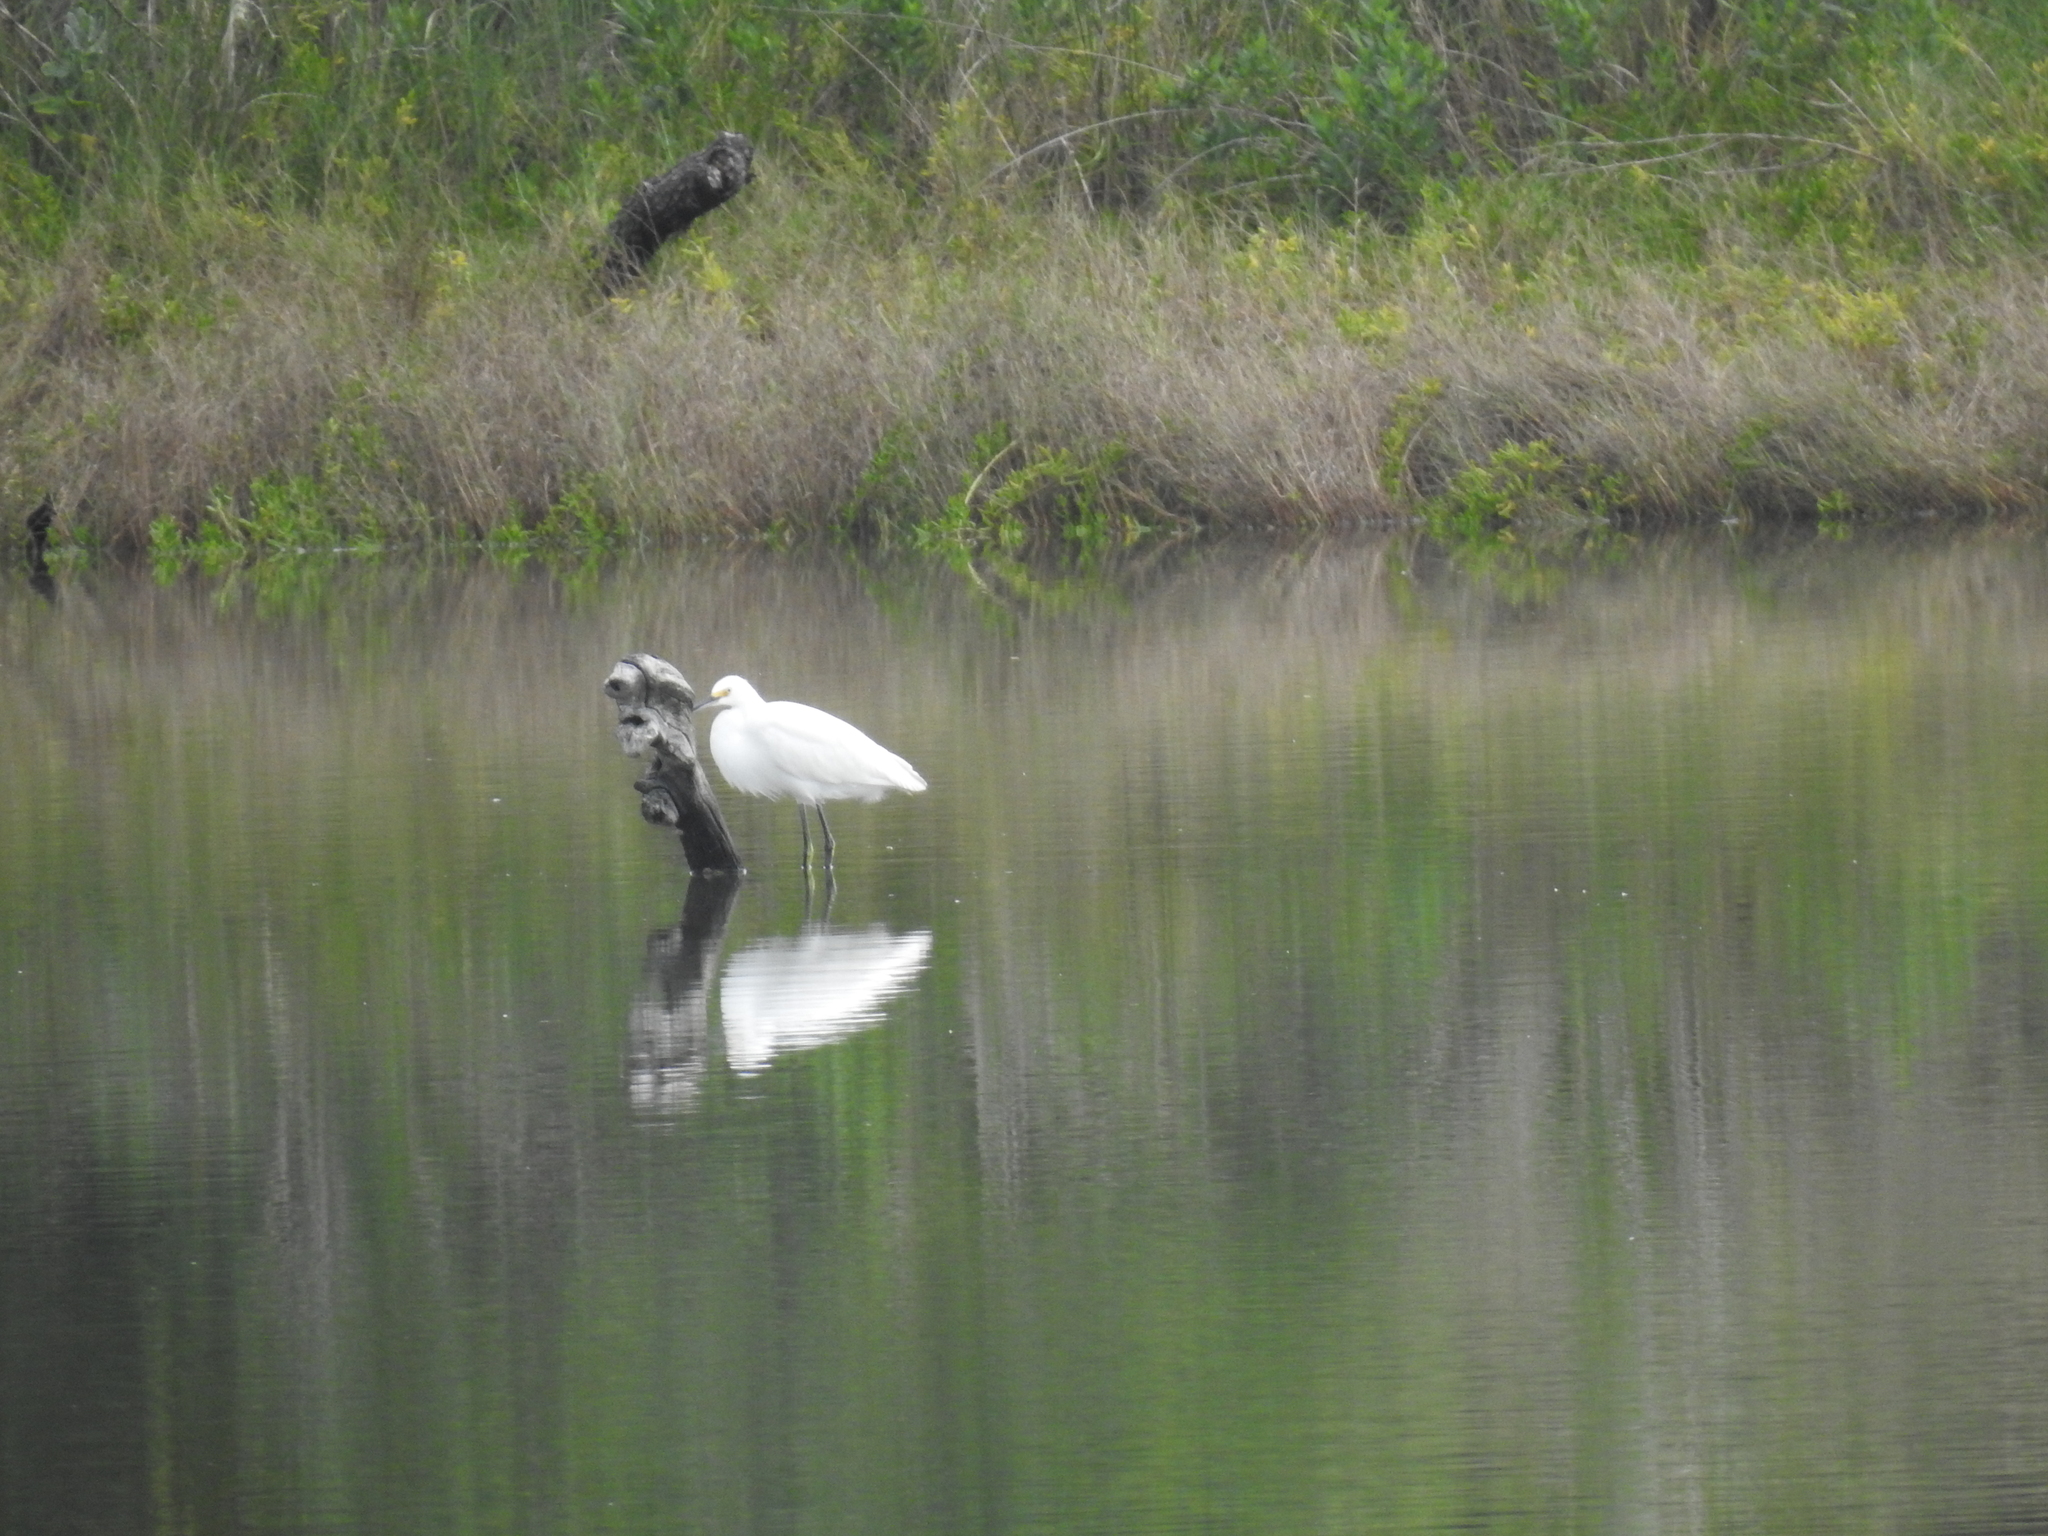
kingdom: Animalia
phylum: Chordata
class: Aves
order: Pelecaniformes
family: Ardeidae
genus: Egretta
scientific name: Egretta thula
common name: Snowy egret
